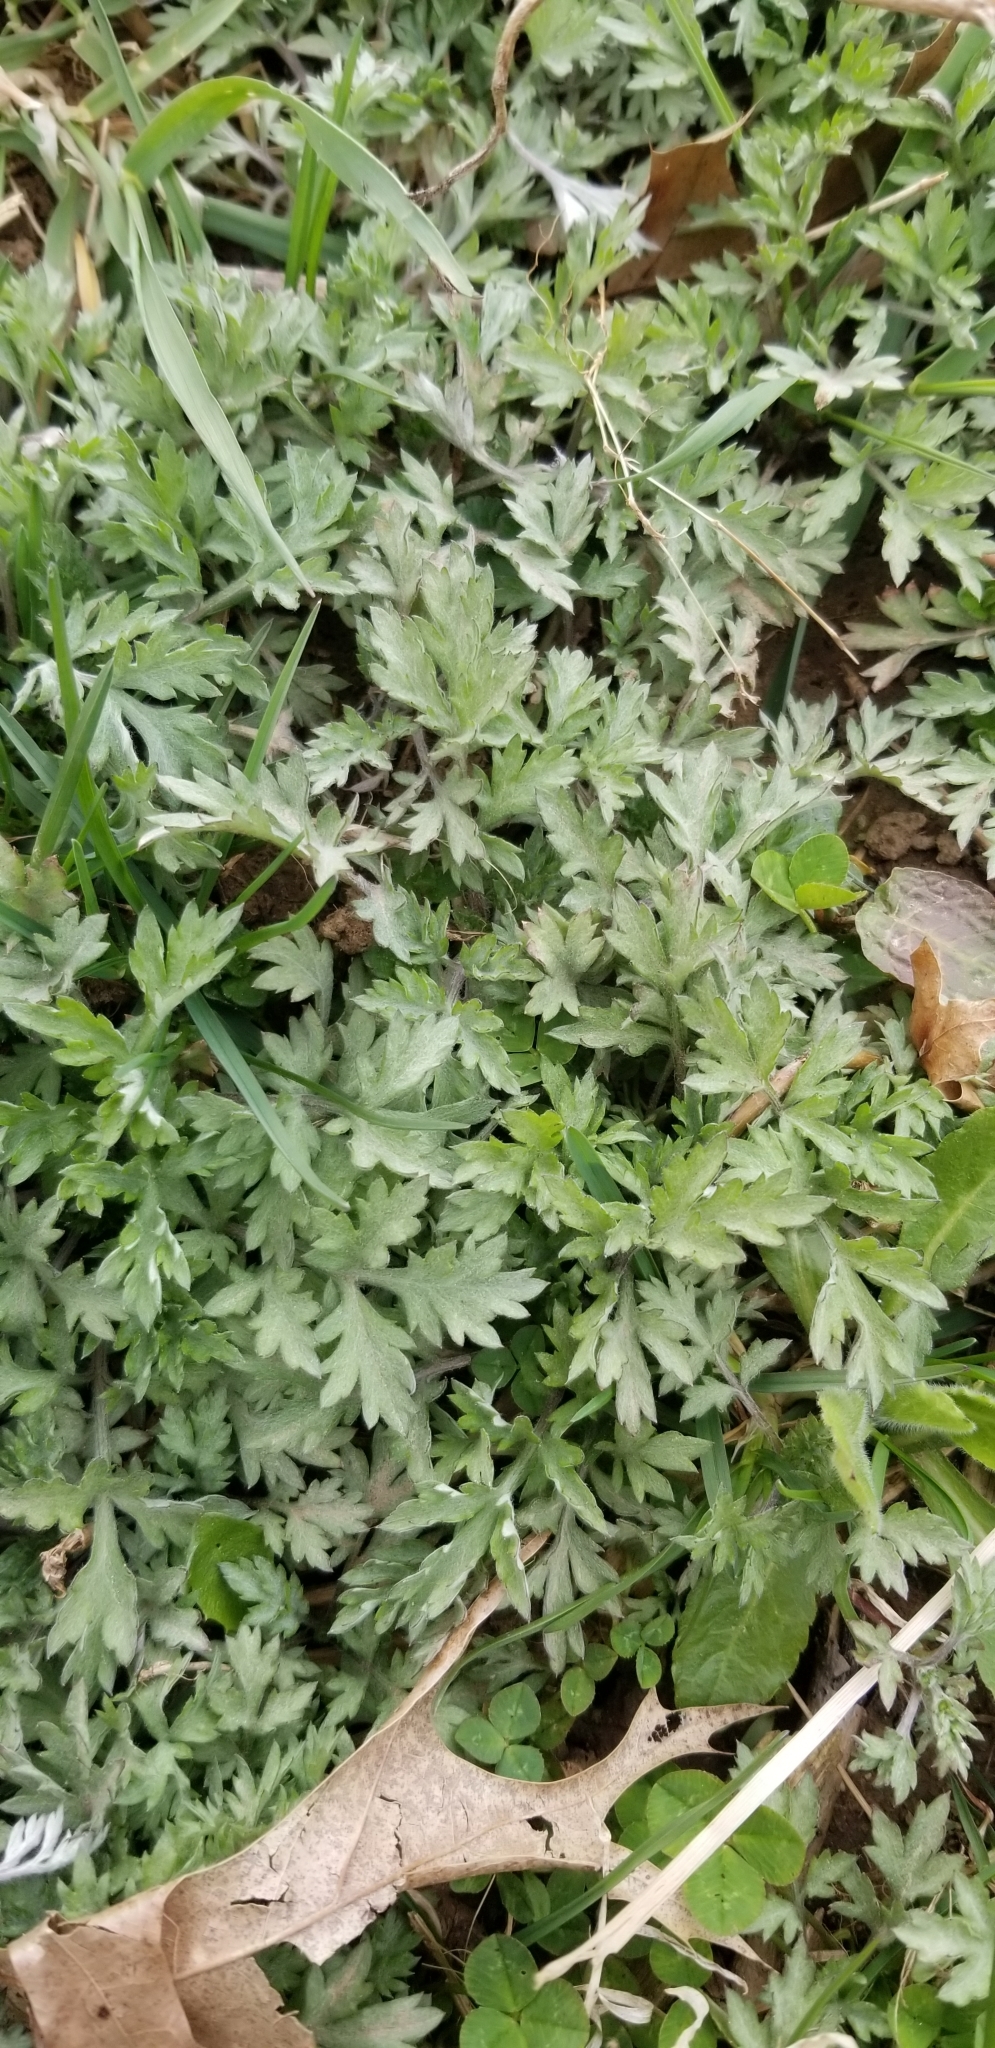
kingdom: Plantae
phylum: Tracheophyta
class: Magnoliopsida
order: Asterales
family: Asteraceae
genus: Artemisia
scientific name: Artemisia vulgaris
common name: Mugwort
